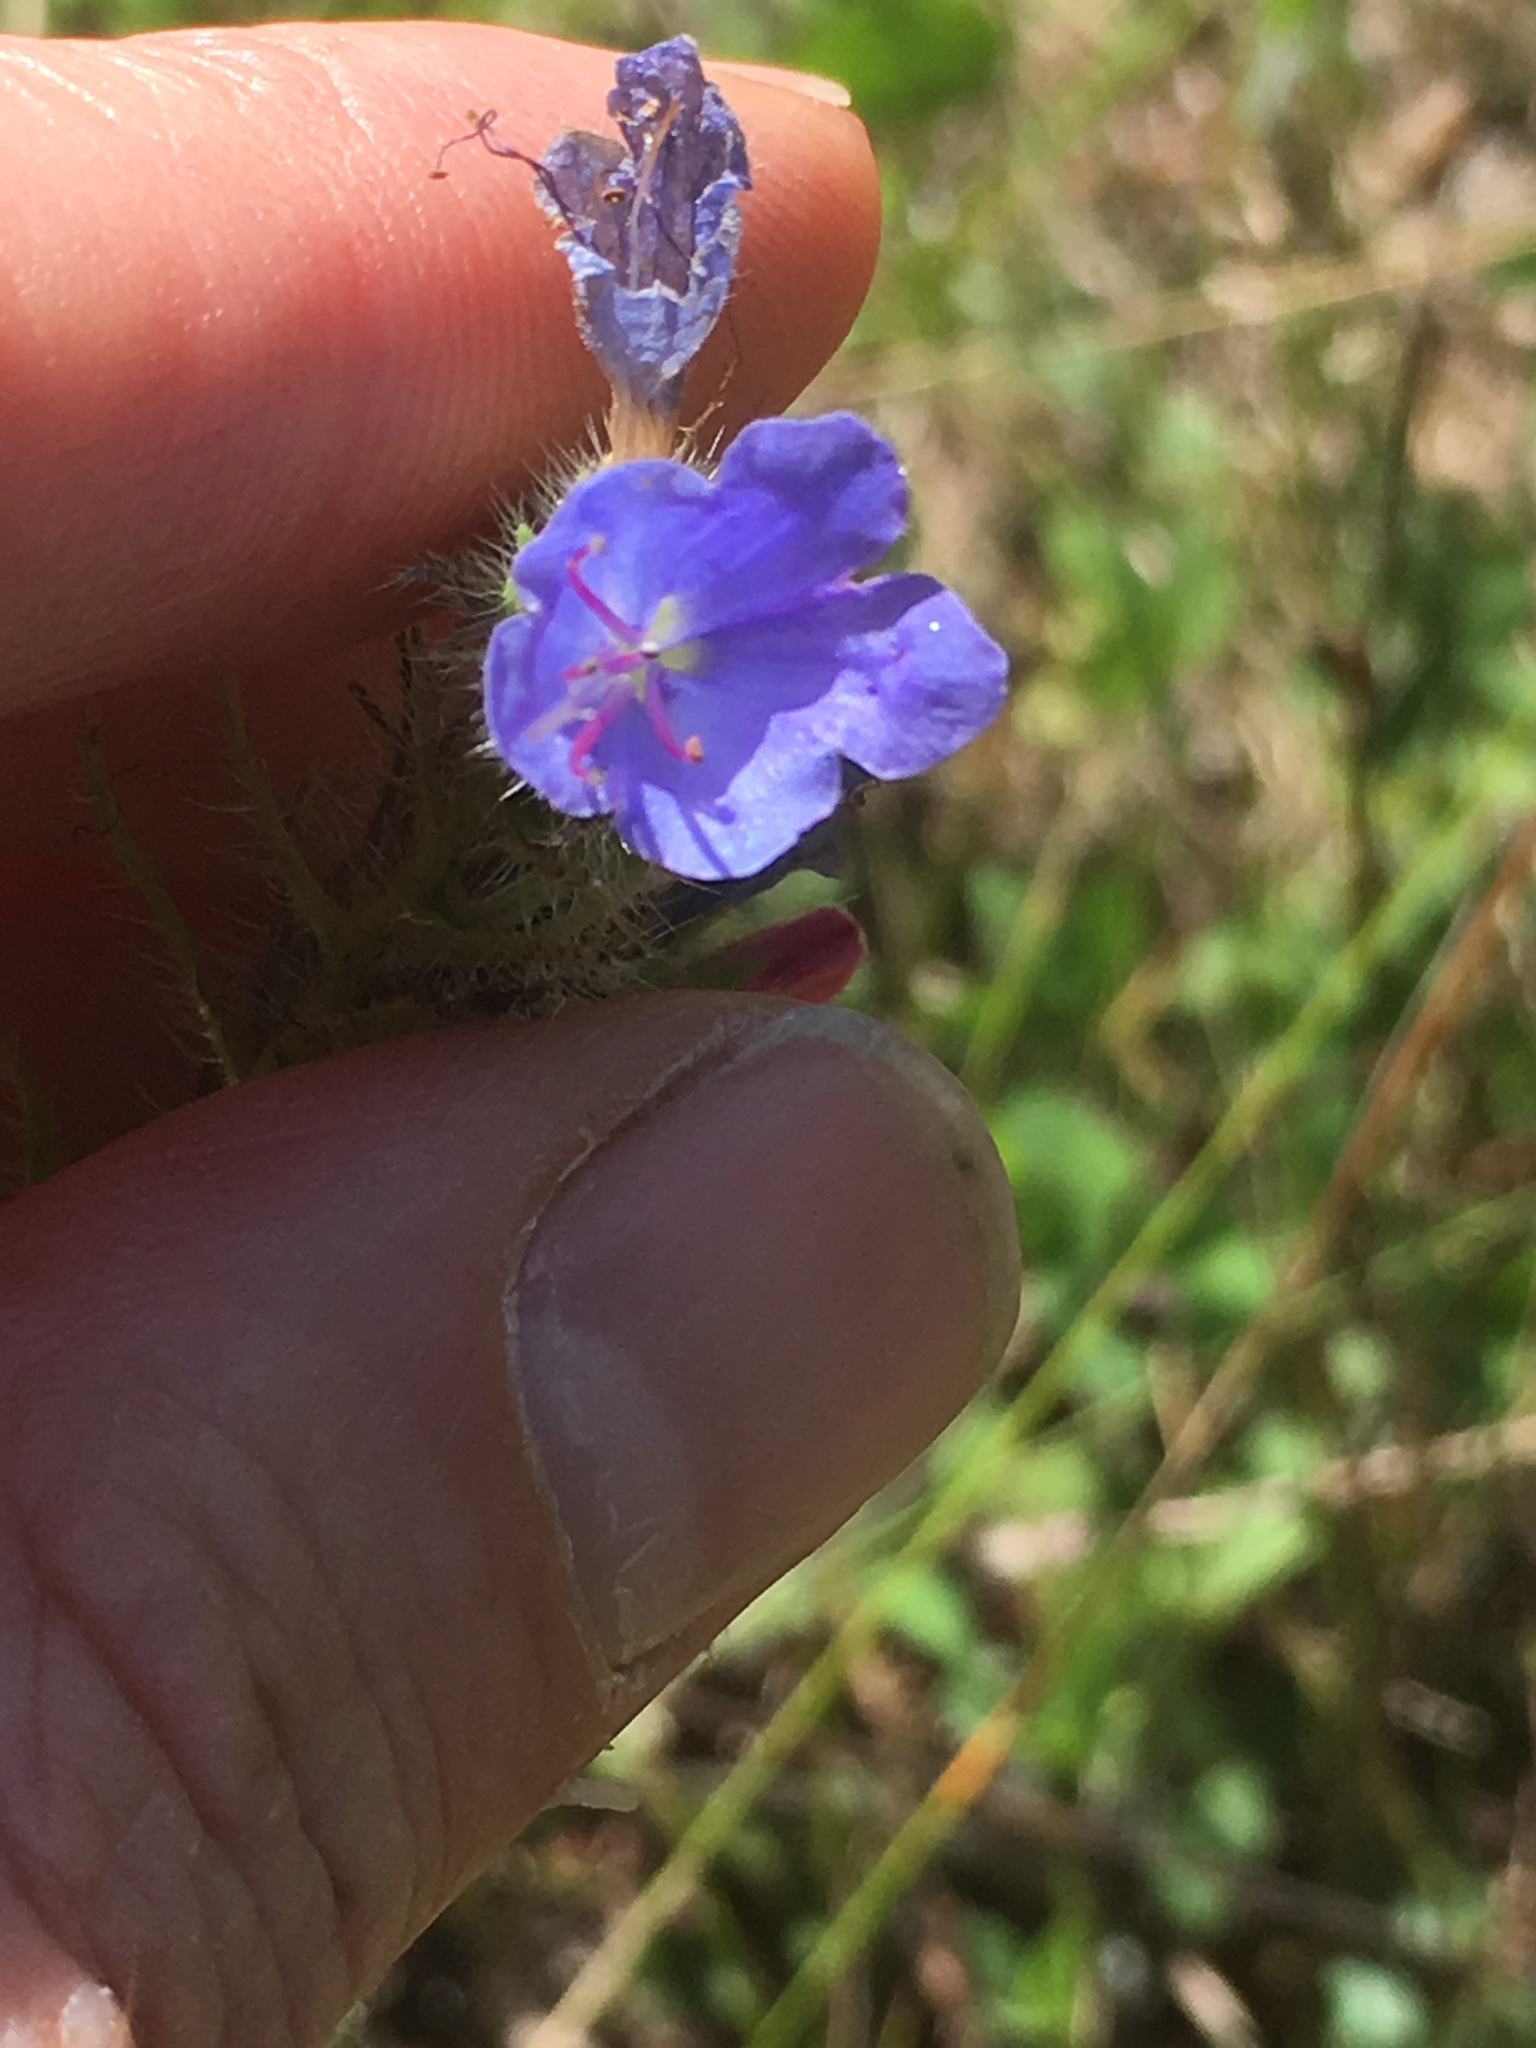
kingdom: Plantae
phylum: Tracheophyta
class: Magnoliopsida
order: Boraginales
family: Boraginaceae
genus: Echium
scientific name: Echium vulgare
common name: Common viper's bugloss
